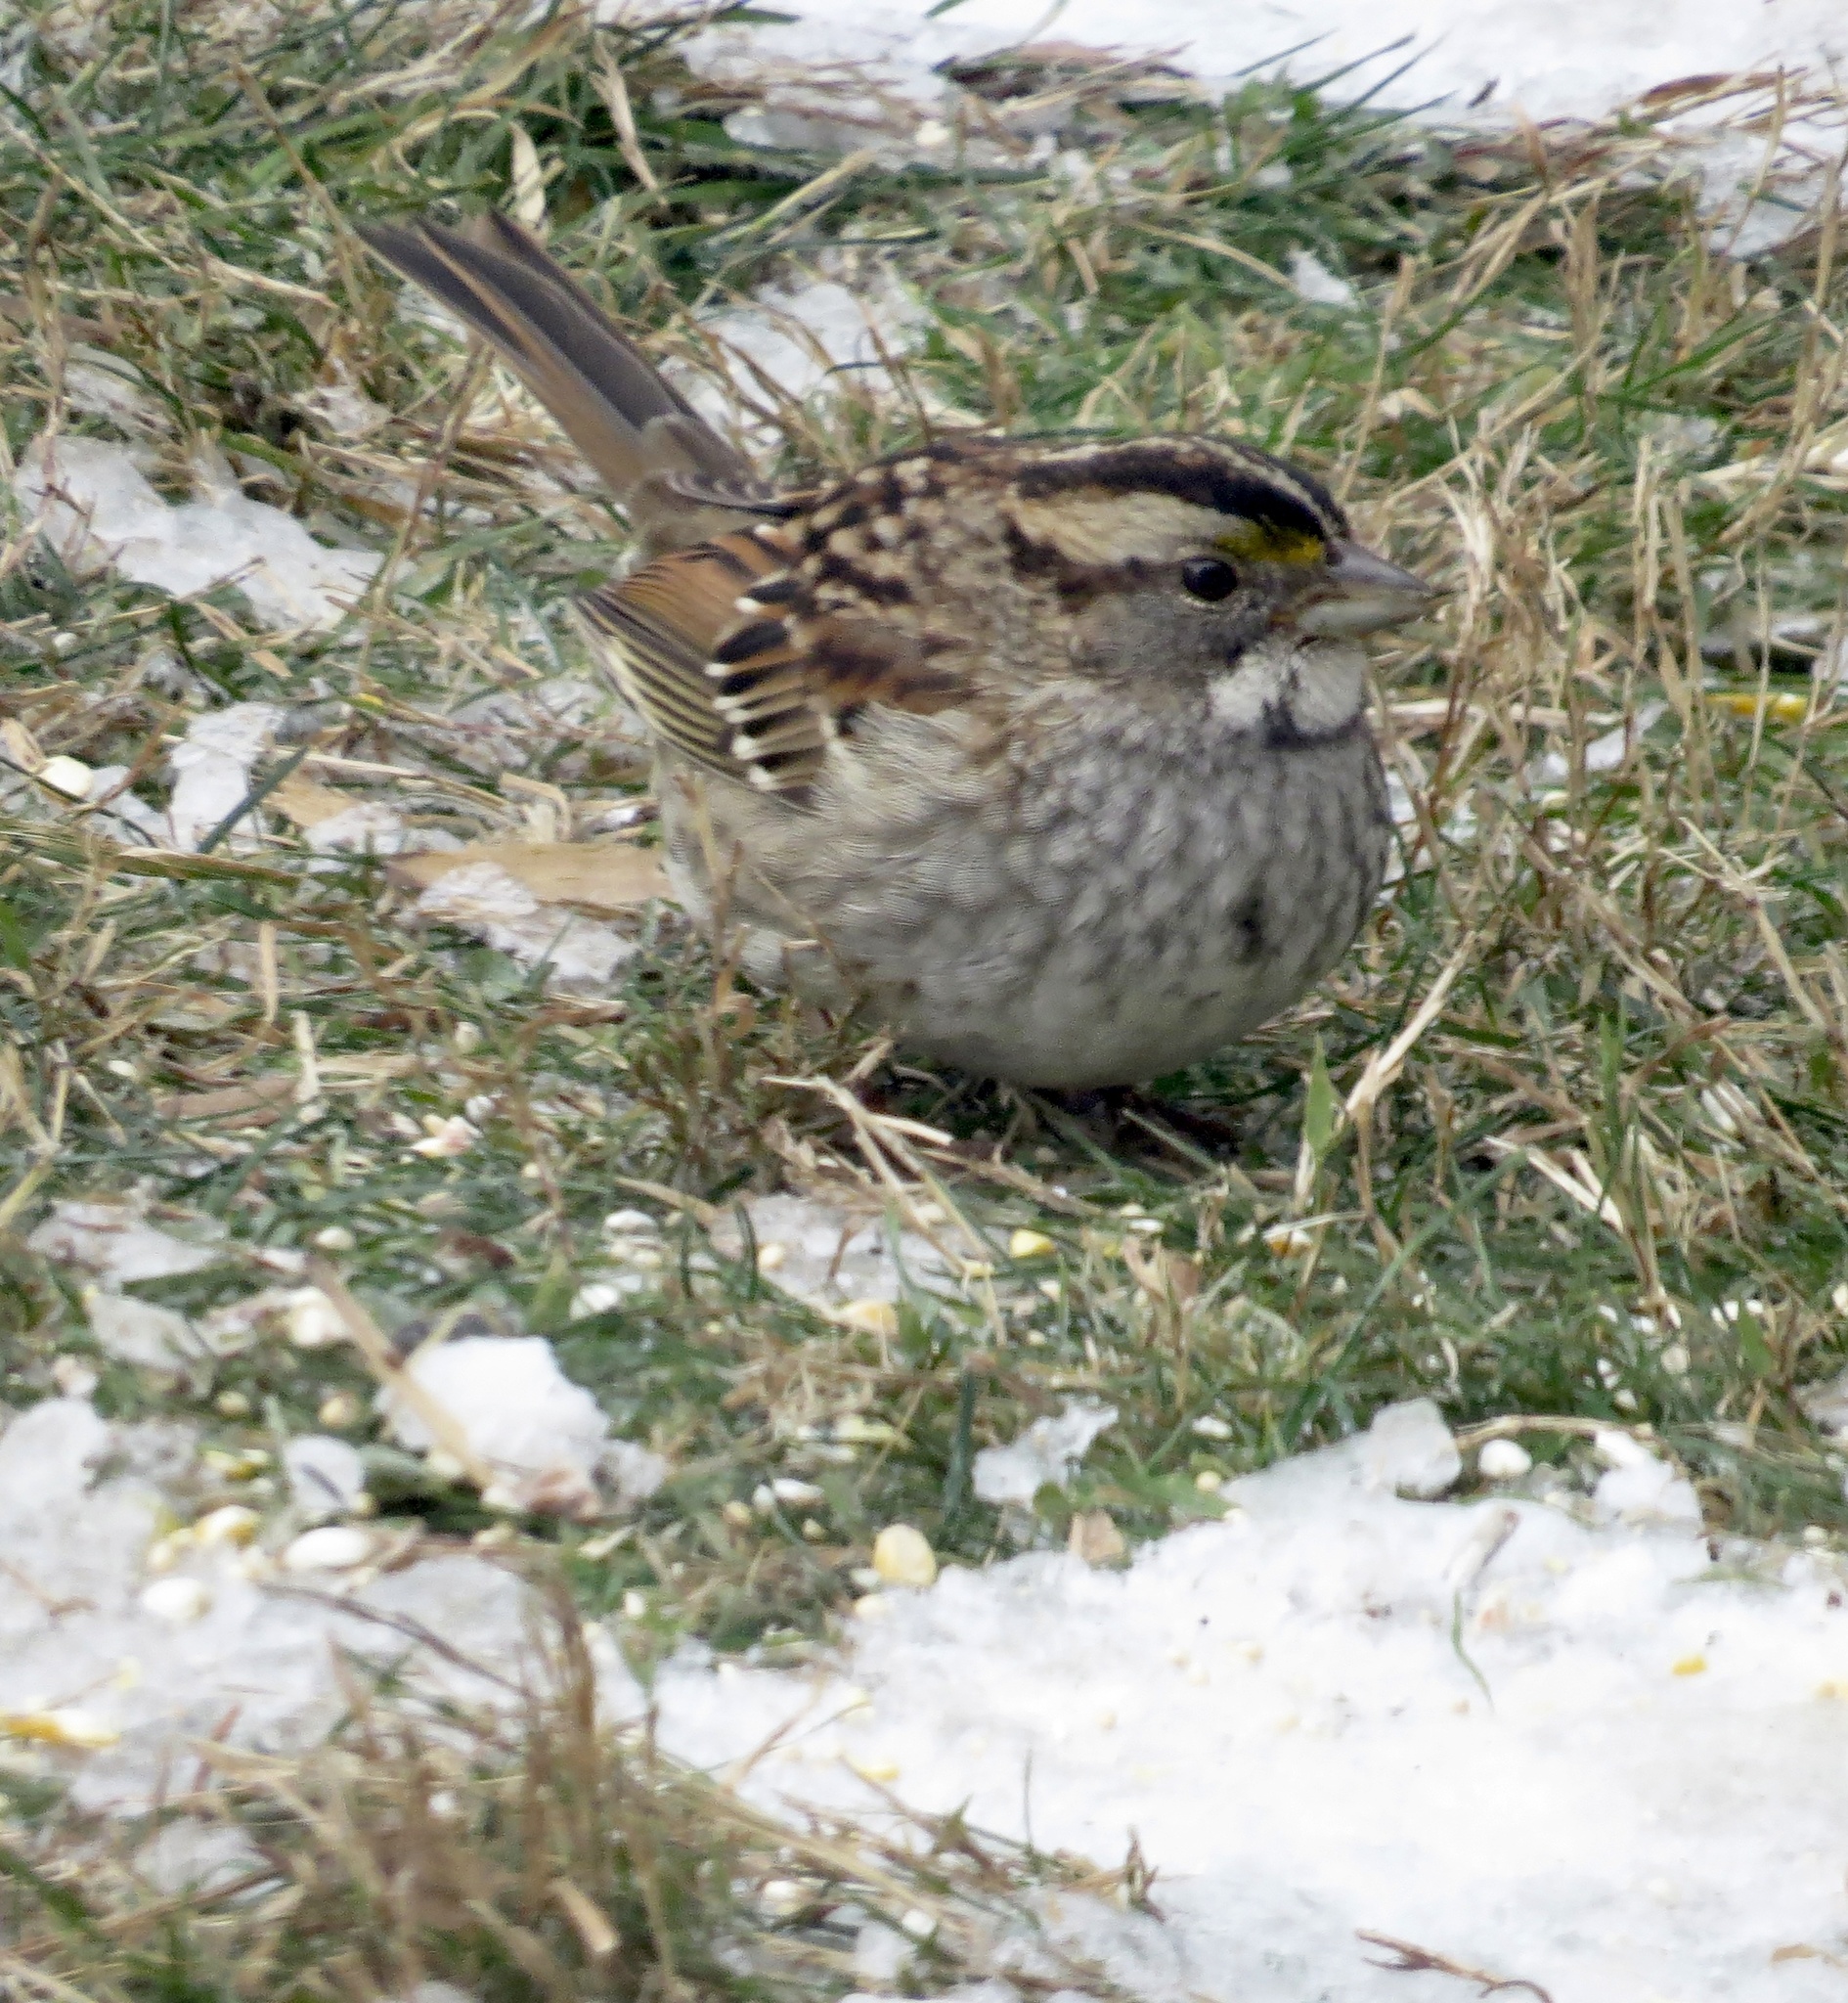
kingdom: Animalia
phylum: Chordata
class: Aves
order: Passeriformes
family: Passerellidae
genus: Zonotrichia
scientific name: Zonotrichia albicollis
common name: White-throated sparrow
